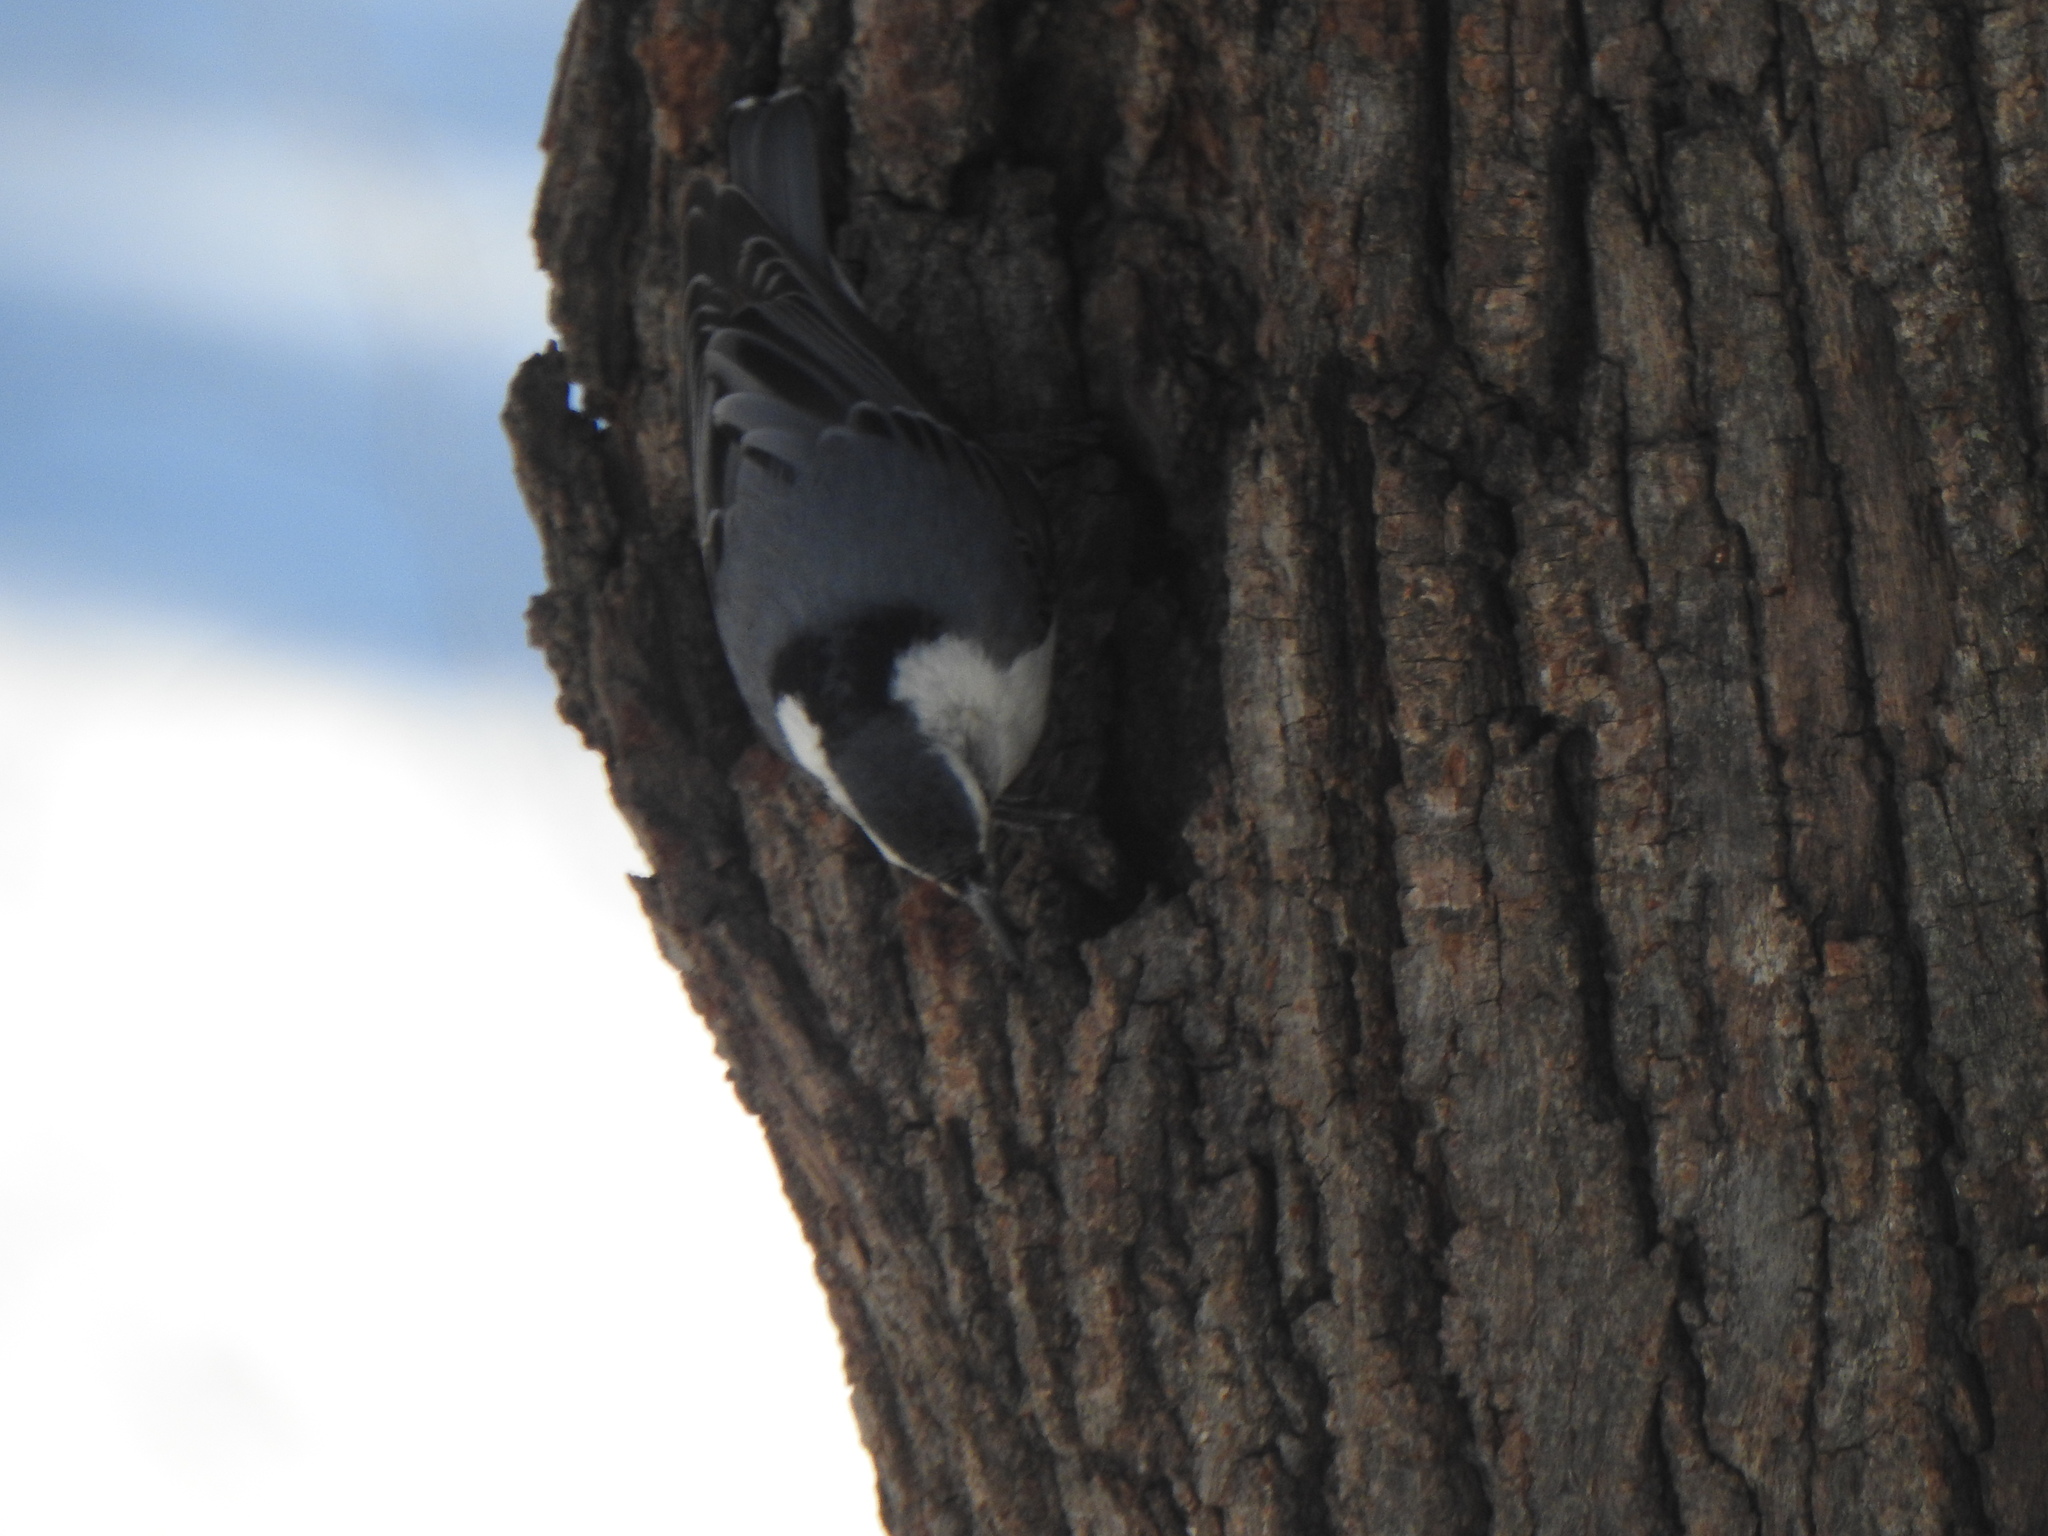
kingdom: Animalia
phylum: Chordata
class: Aves
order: Passeriformes
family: Sittidae
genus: Sitta
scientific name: Sitta carolinensis
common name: White-breasted nuthatch
